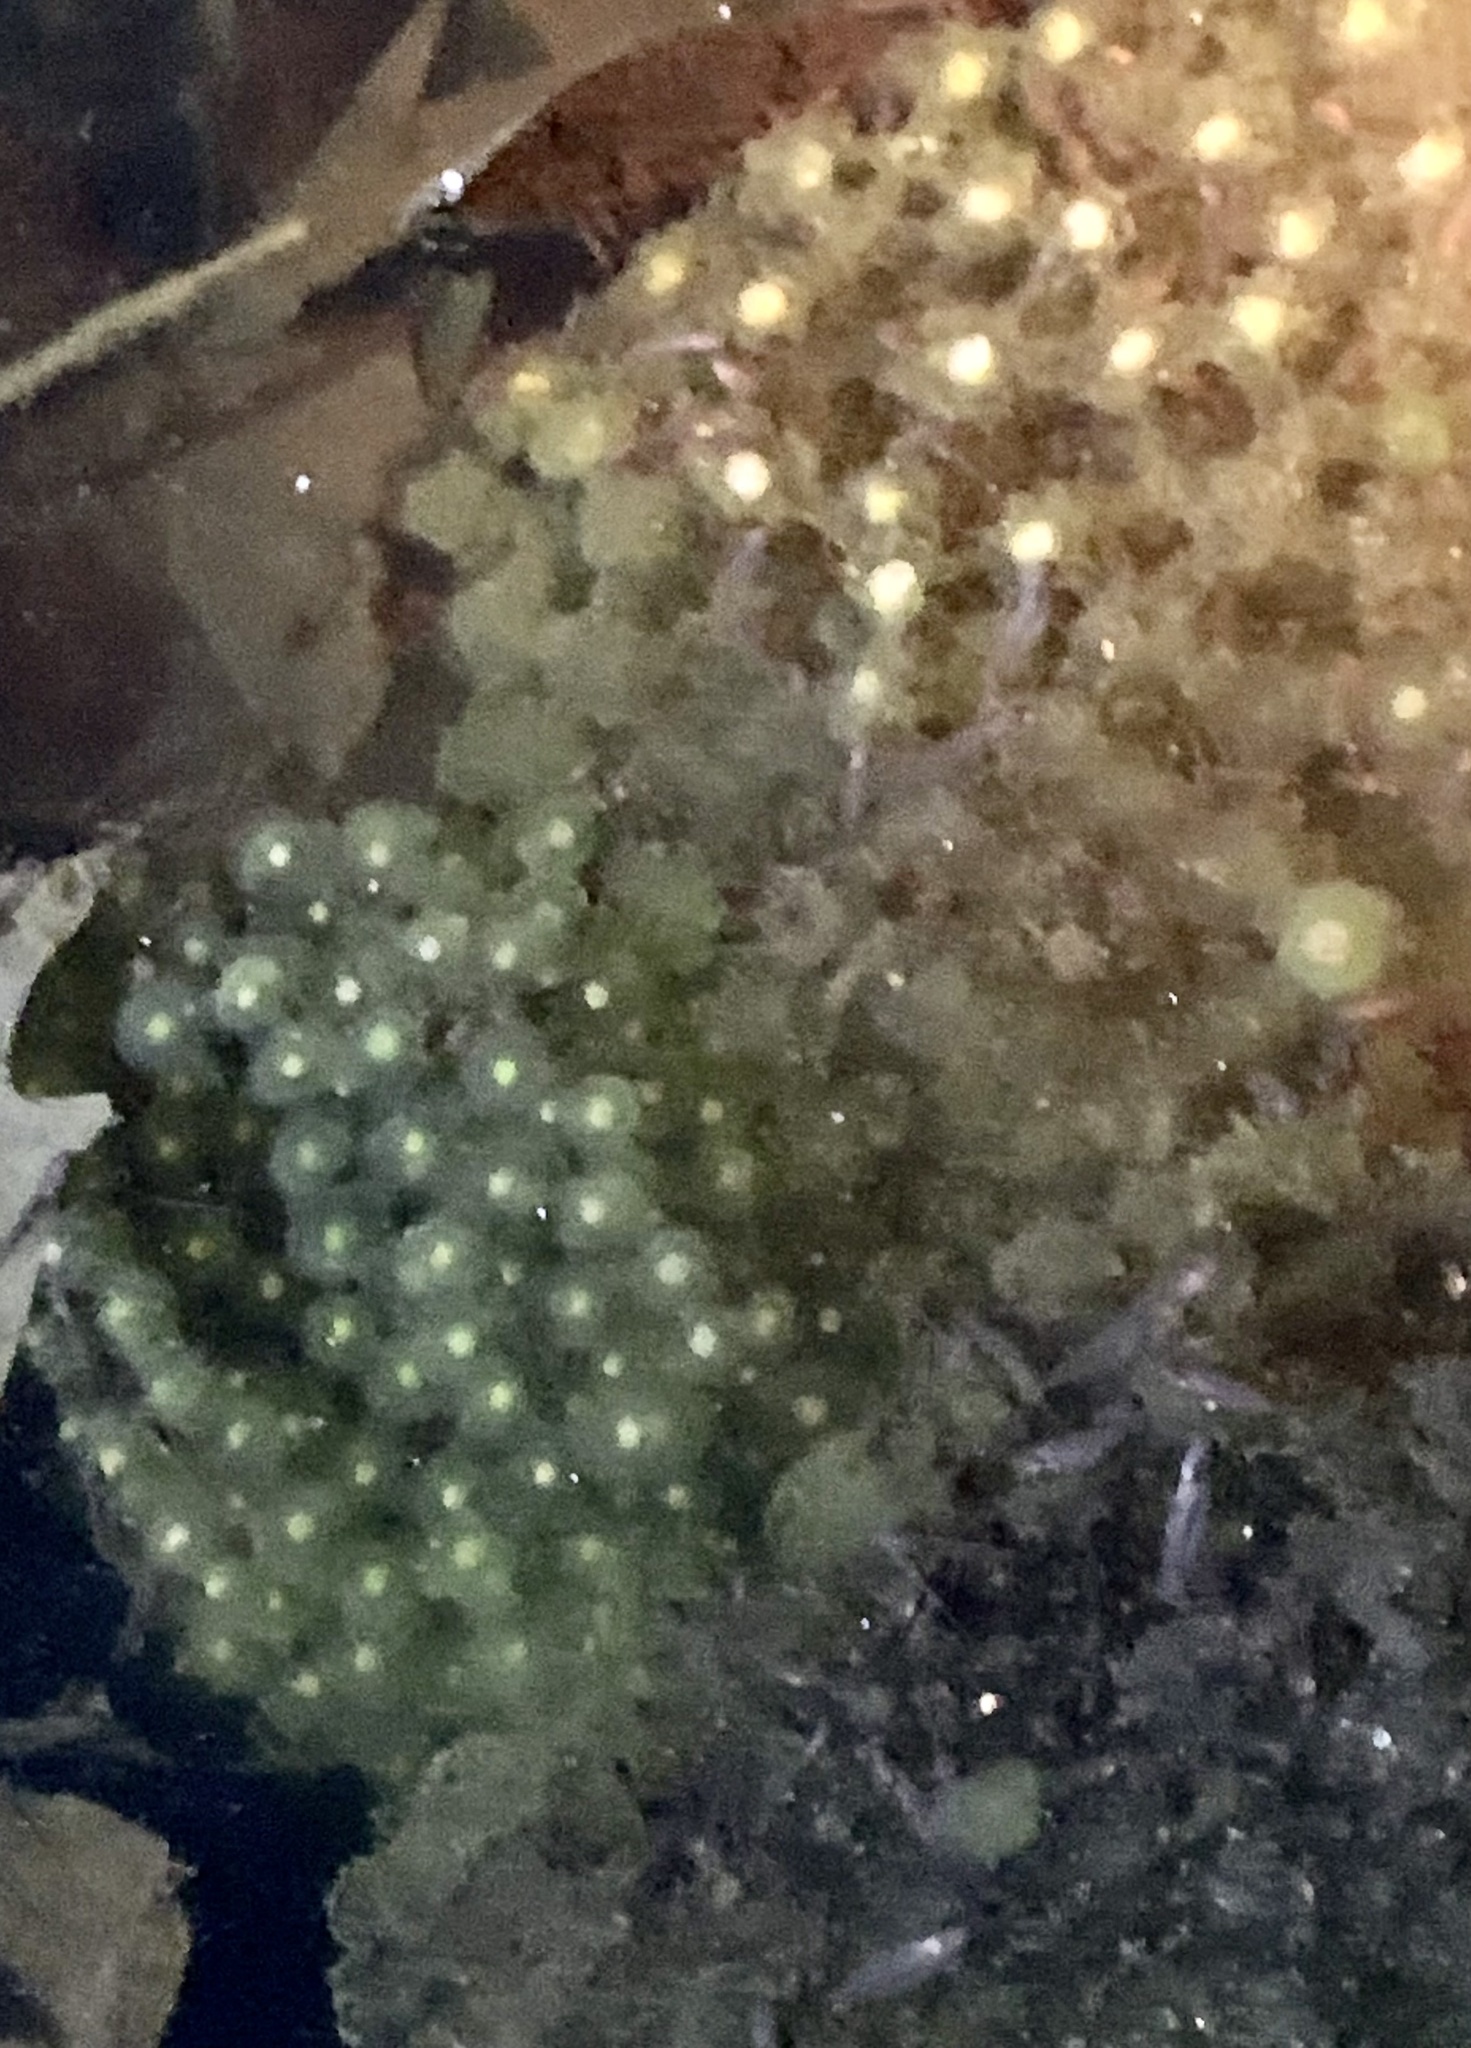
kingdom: Animalia
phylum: Chordata
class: Amphibia
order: Caudata
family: Ambystomatidae
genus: Ambystoma
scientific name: Ambystoma maculatum
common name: Spotted salamander
